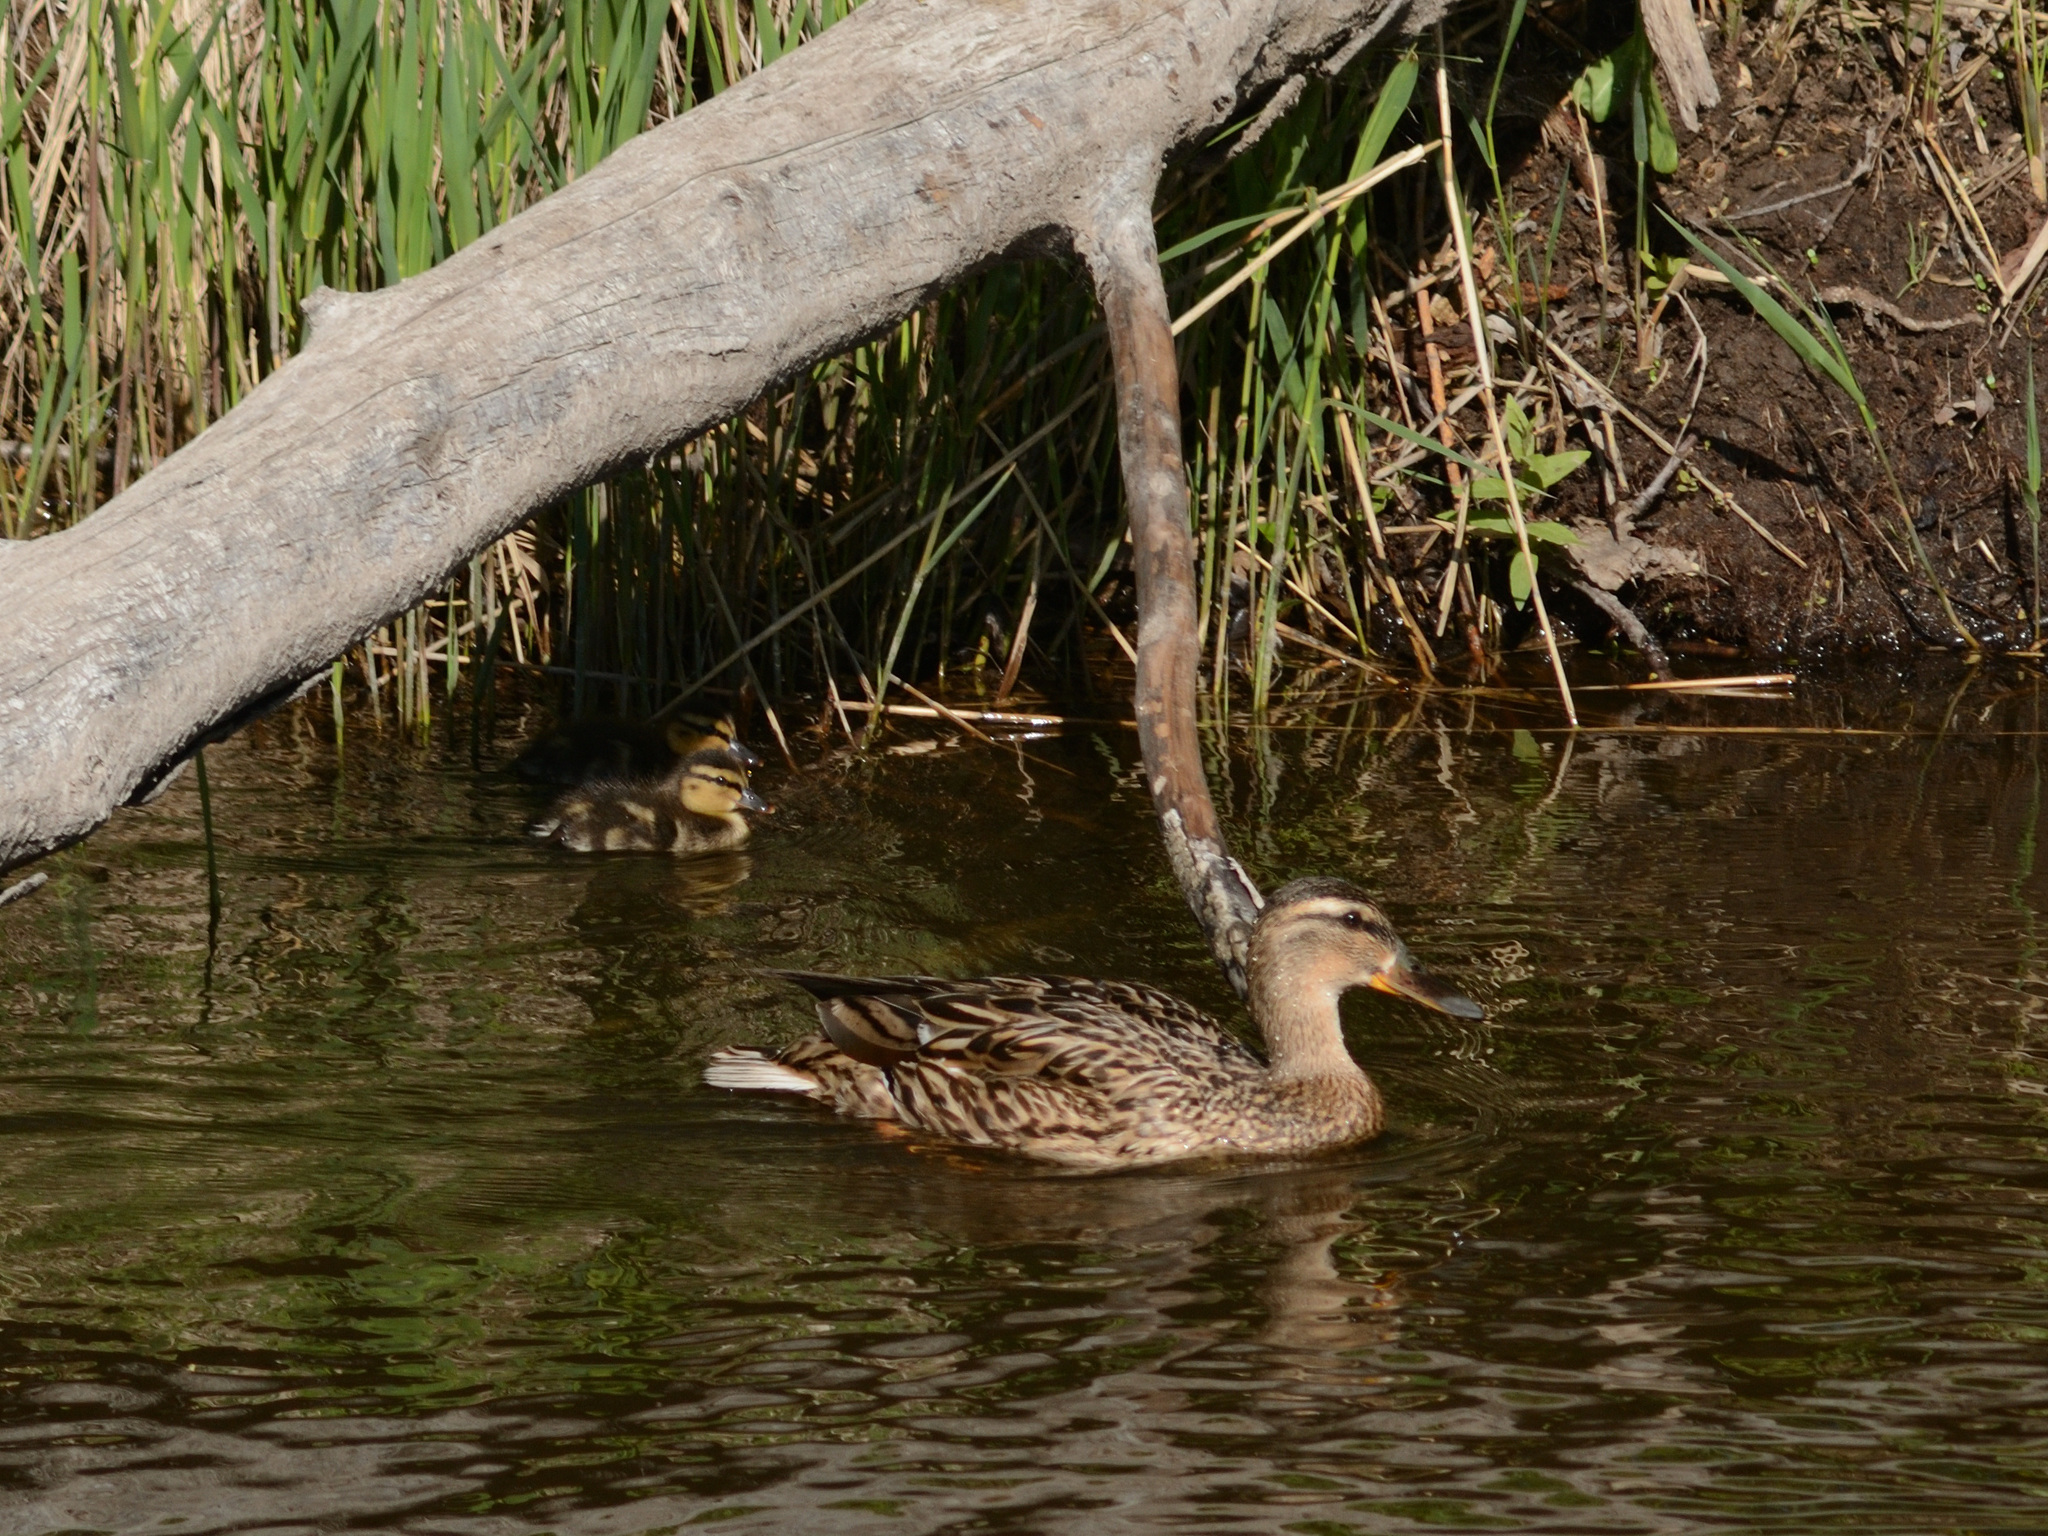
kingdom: Animalia
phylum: Chordata
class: Aves
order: Anseriformes
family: Anatidae
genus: Anas
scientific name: Anas platyrhynchos
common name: Mallard
